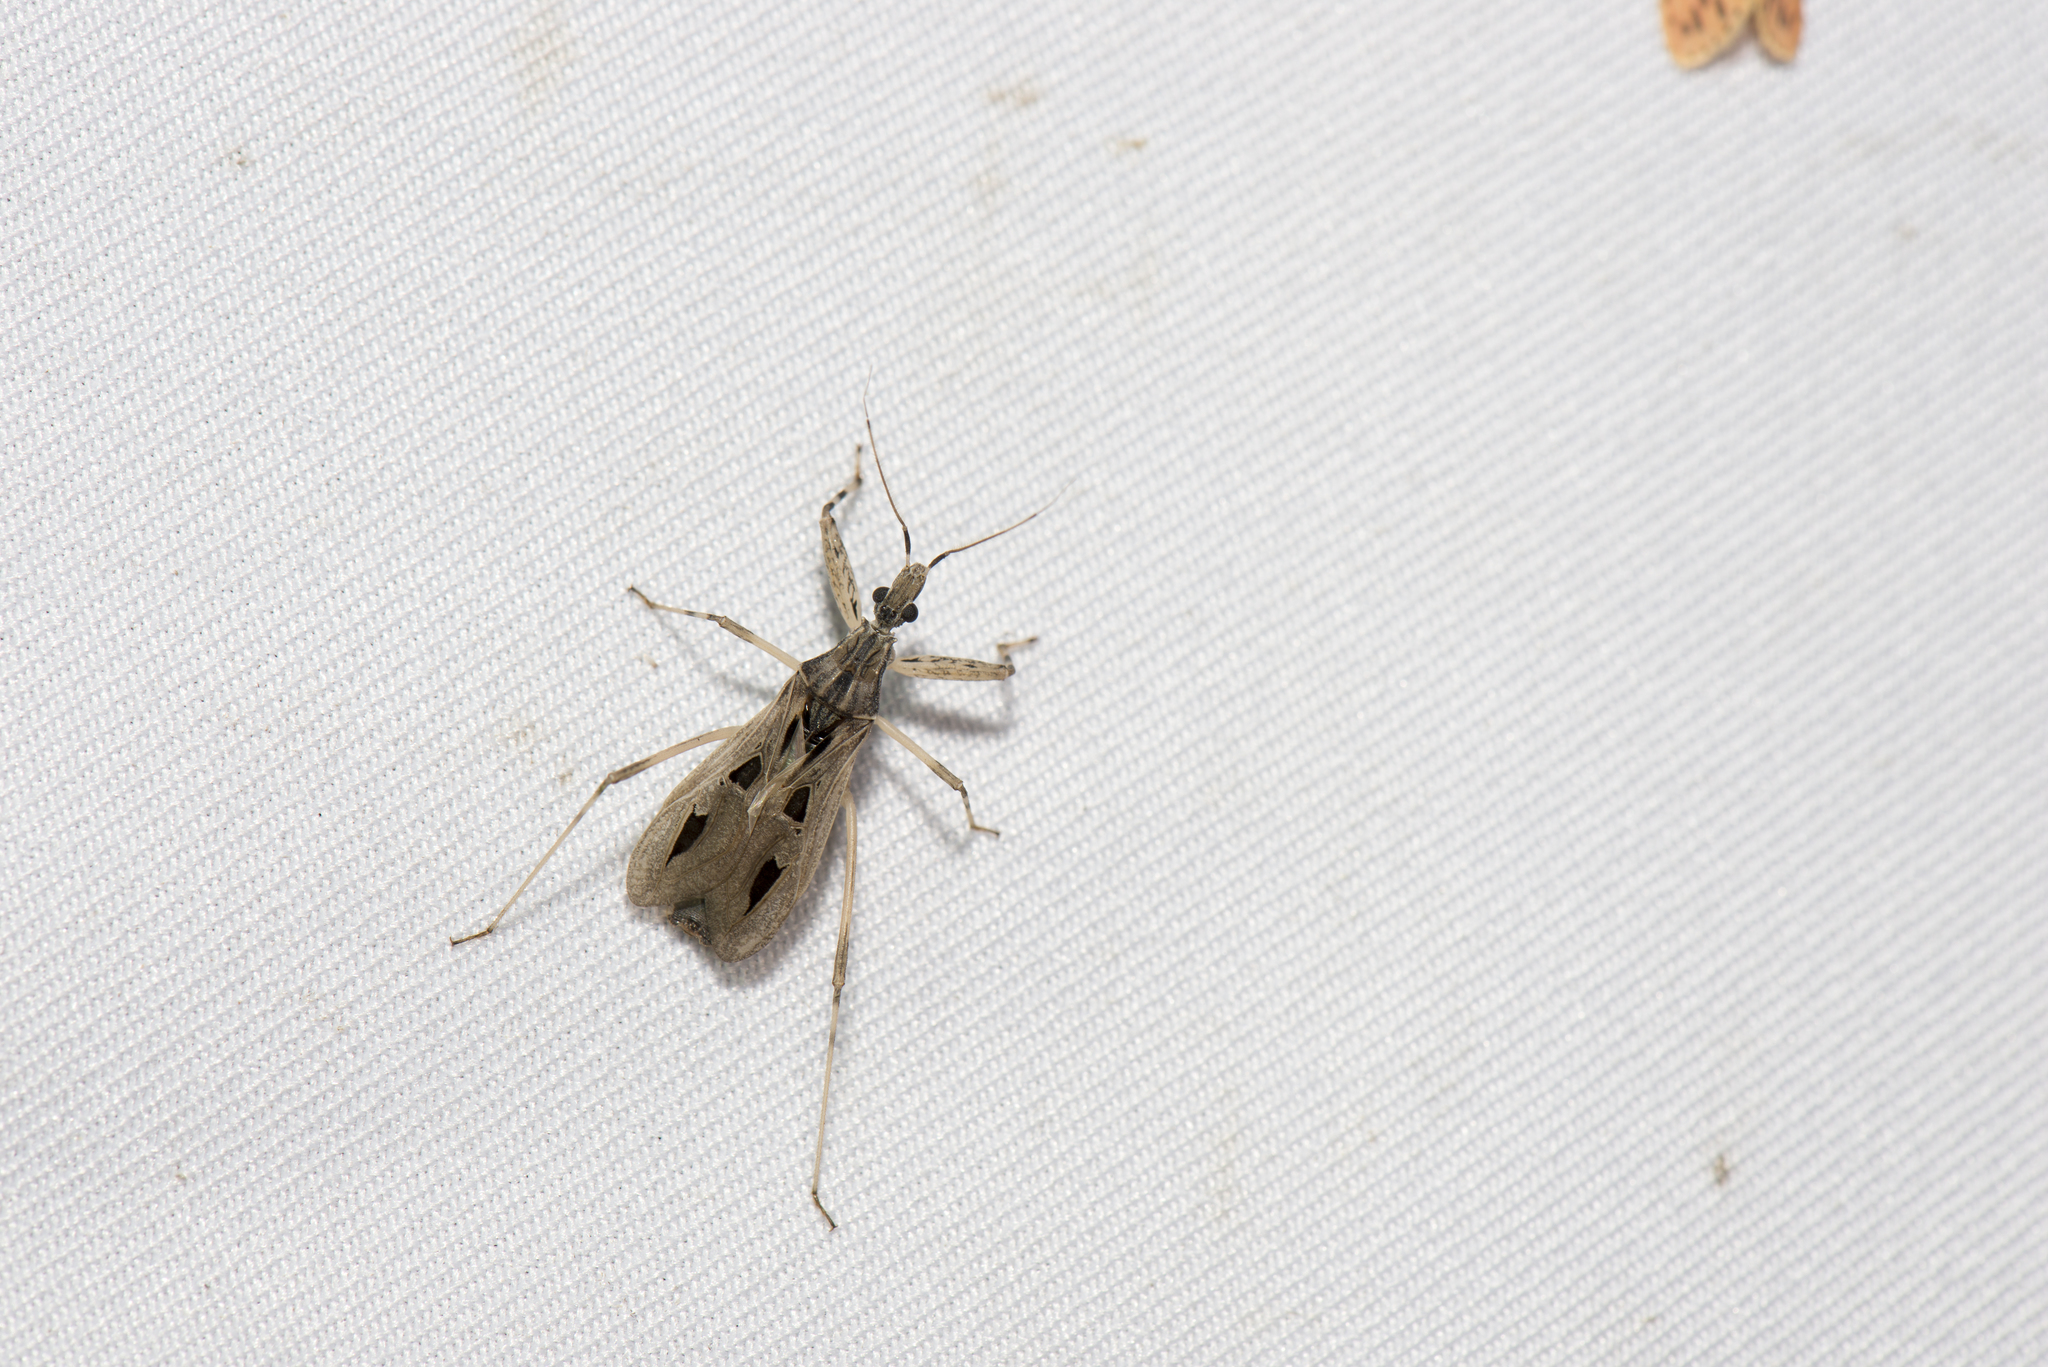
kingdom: Animalia
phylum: Arthropoda
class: Insecta
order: Hemiptera
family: Reduviidae
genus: Oncocephalus
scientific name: Oncocephalus assimilis
